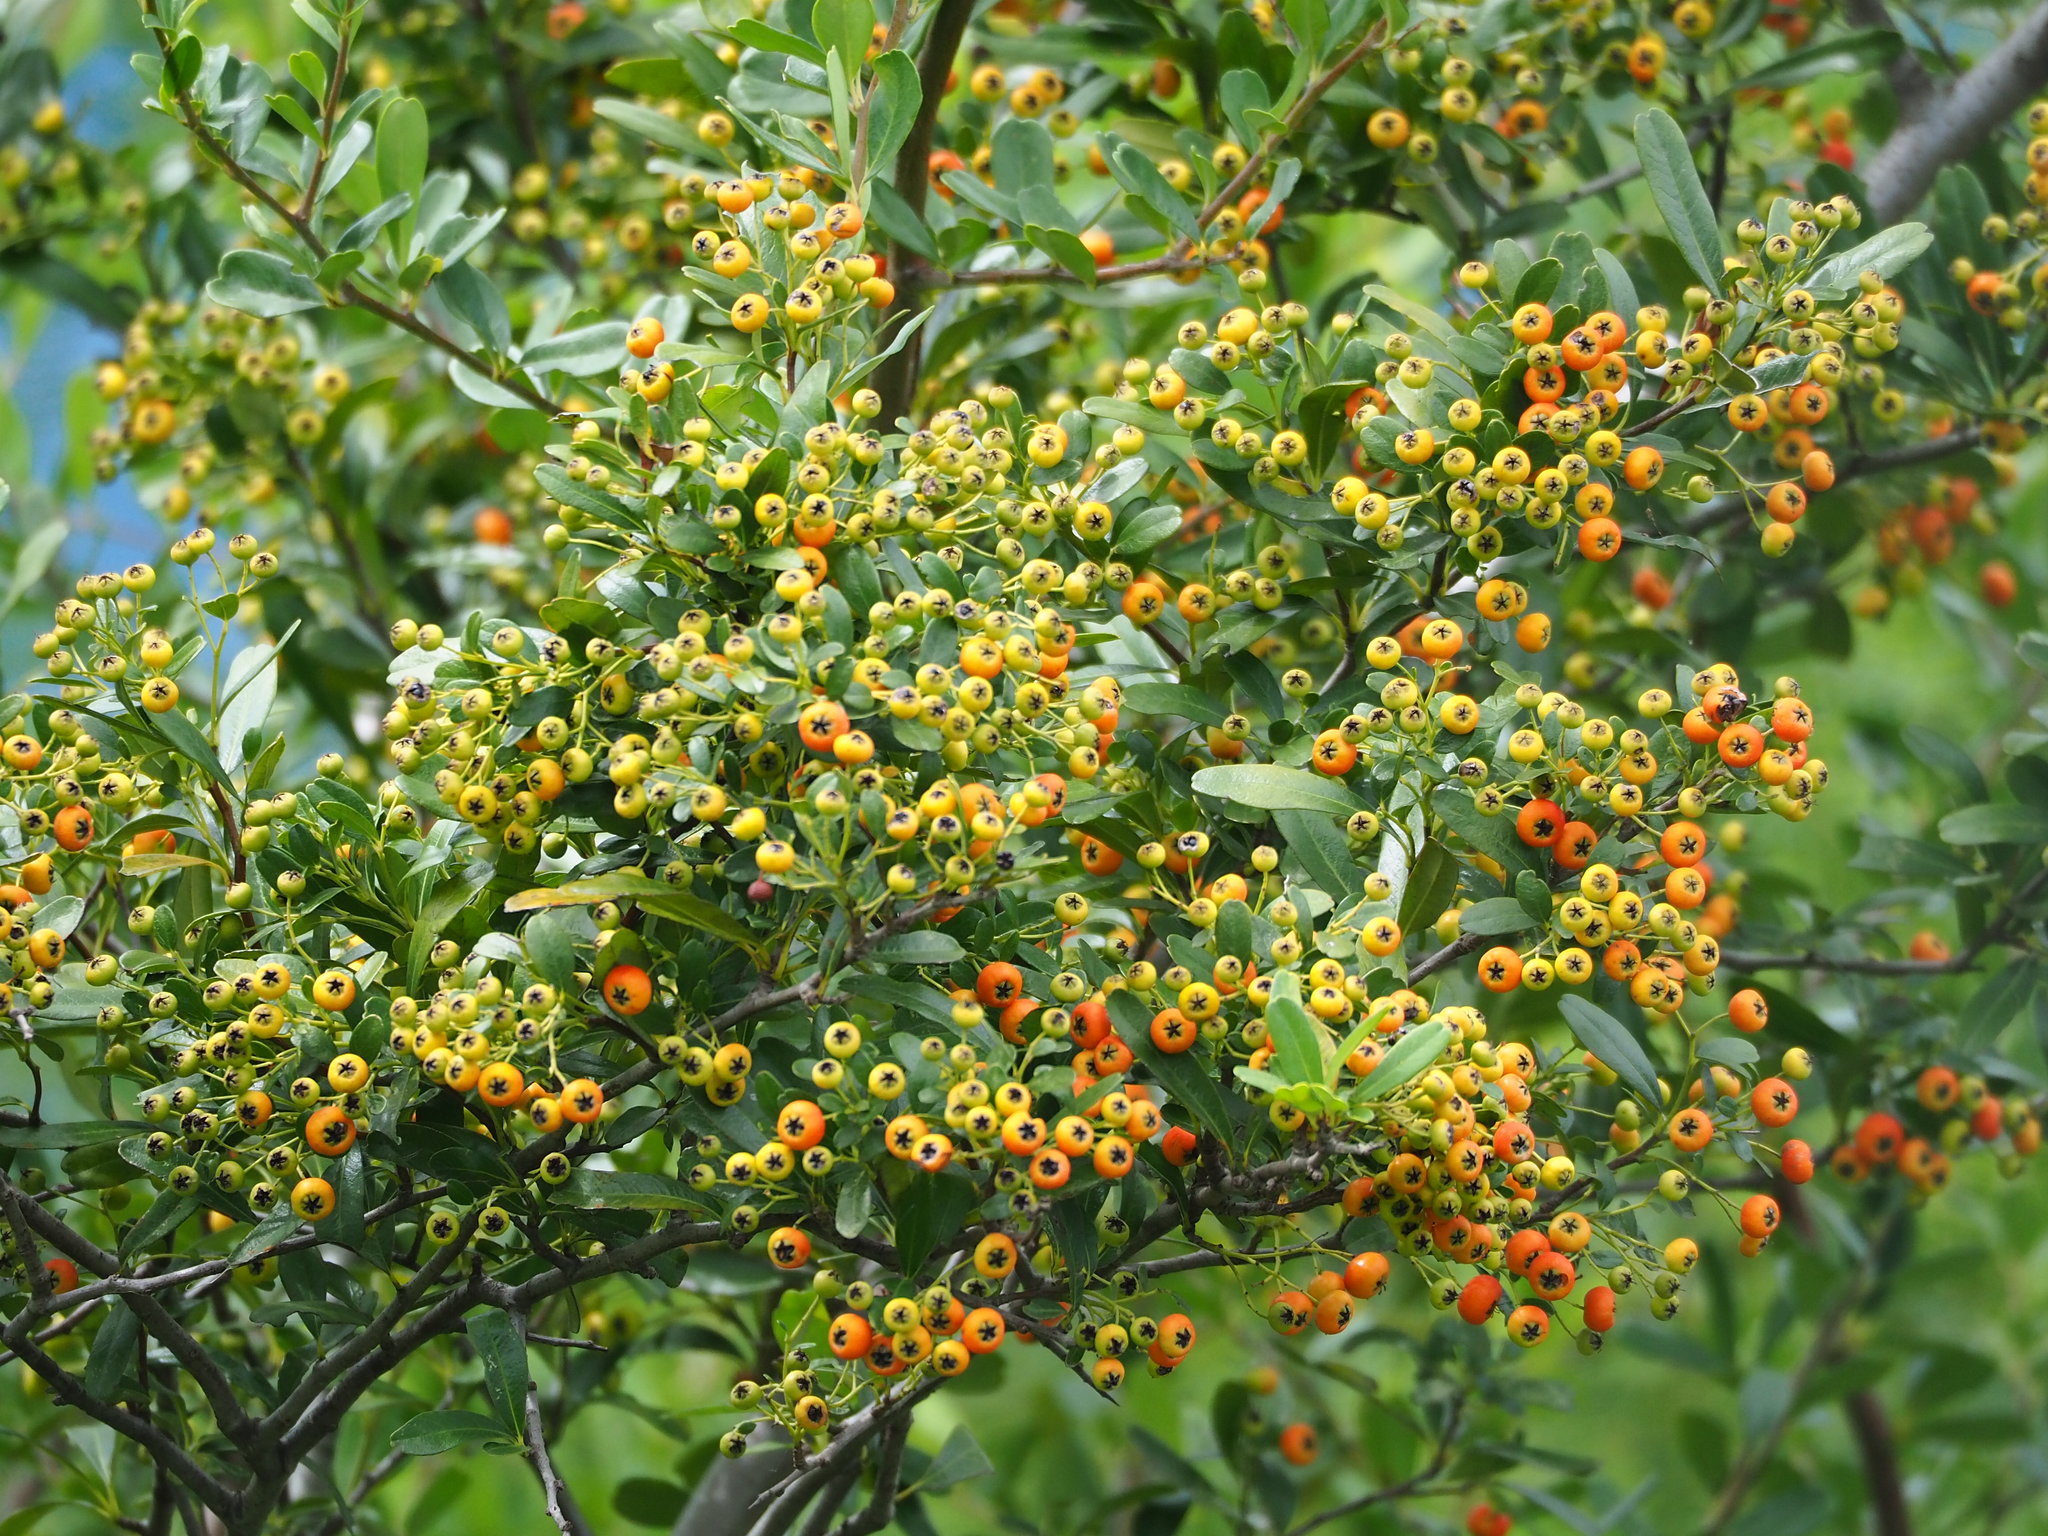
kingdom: Plantae
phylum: Tracheophyta
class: Magnoliopsida
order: Rosales
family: Rosaceae
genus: Pyracantha
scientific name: Pyracantha koidzumii
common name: Formosa firethorn
